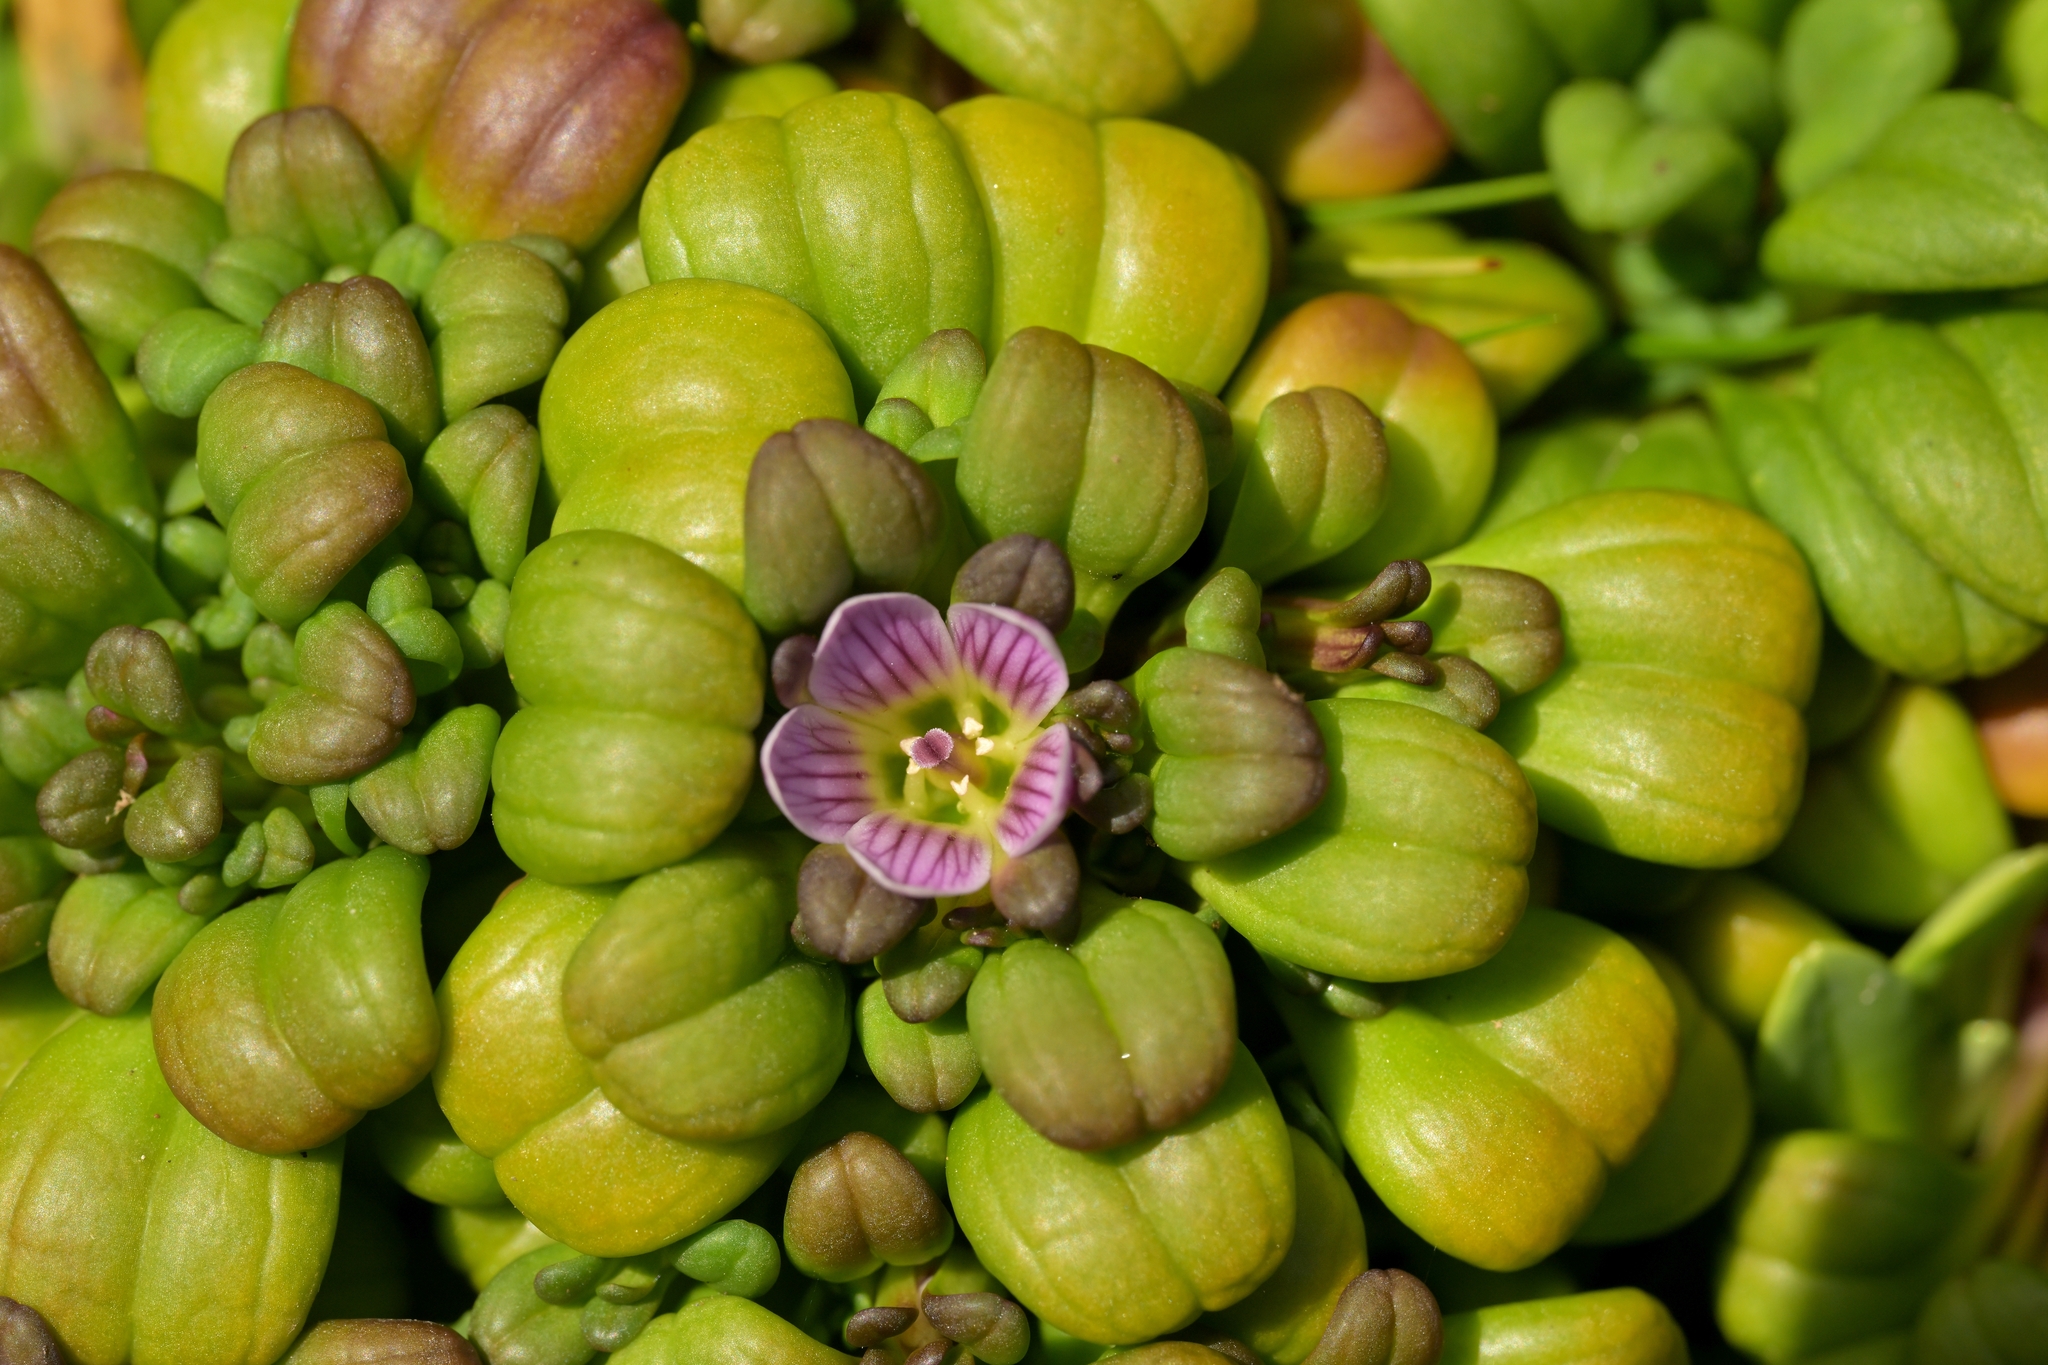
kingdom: Plantae
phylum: Tracheophyta
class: Magnoliopsida
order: Gentianales
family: Gentianaceae
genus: Gentianella
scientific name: Gentianella cerina
